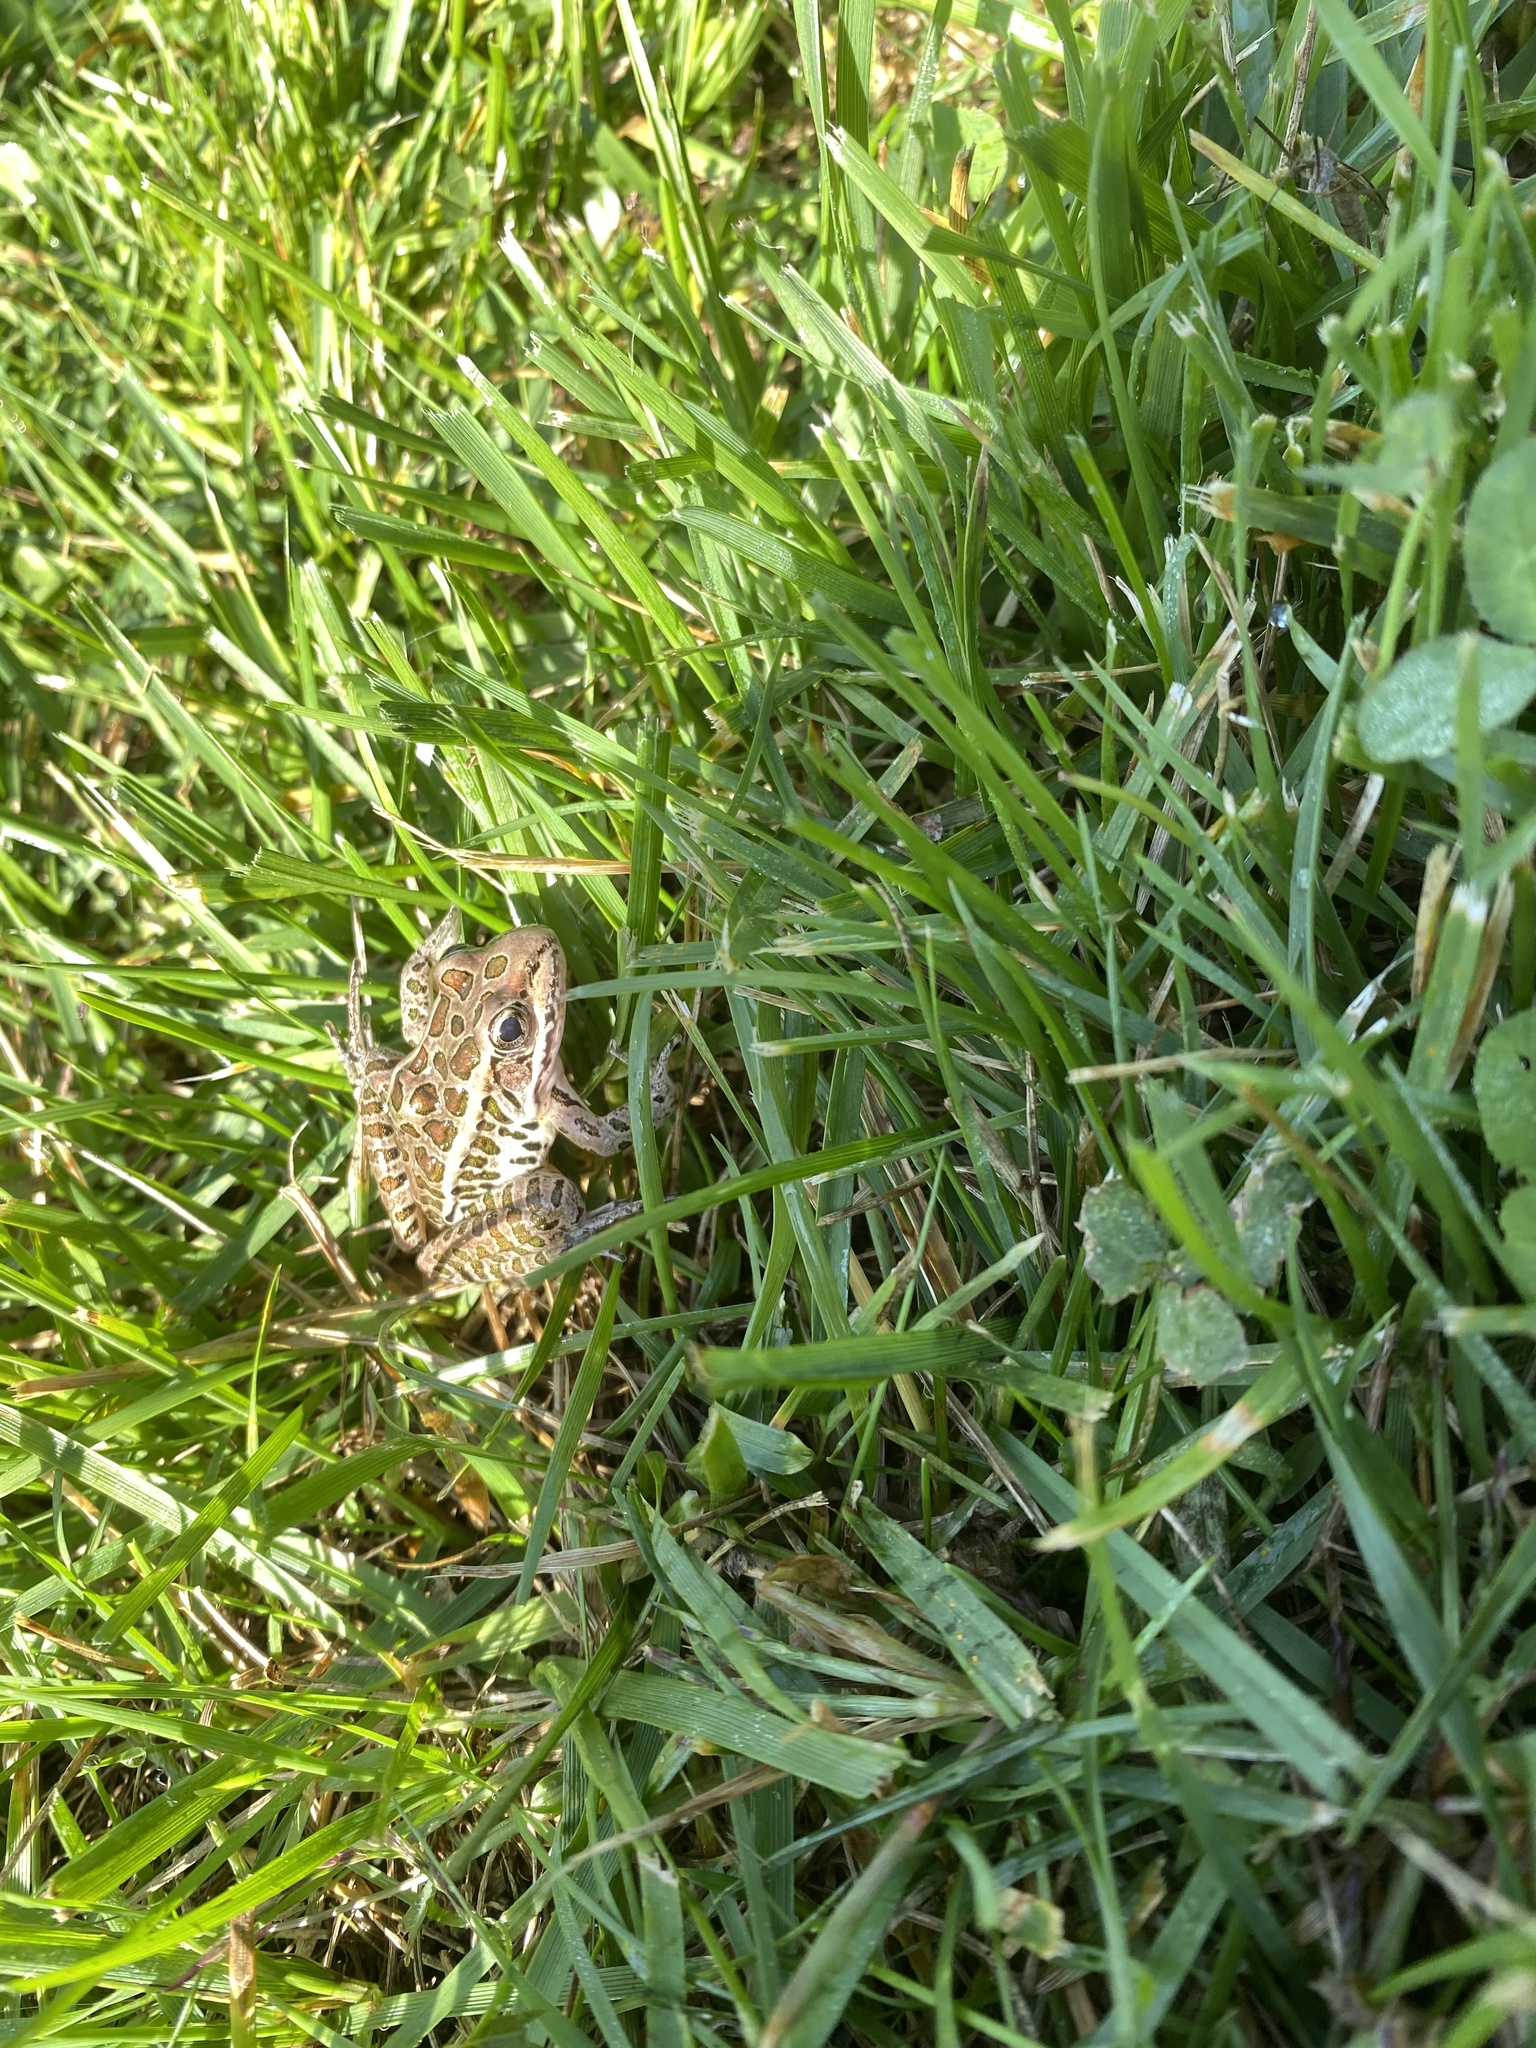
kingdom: Animalia
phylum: Chordata
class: Amphibia
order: Anura
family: Ranidae
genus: Lithobates
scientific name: Lithobates palustris
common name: Pickerel frog
